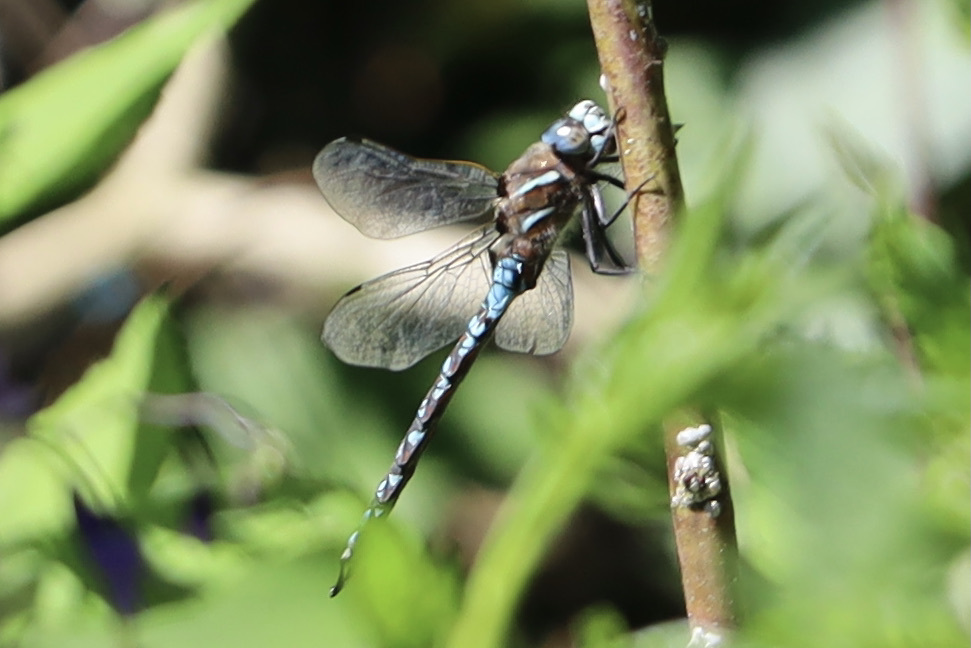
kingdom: Animalia
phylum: Arthropoda
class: Insecta
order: Odonata
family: Aeshnidae
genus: Rhionaeschna
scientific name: Rhionaeschna californica
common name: California darner
